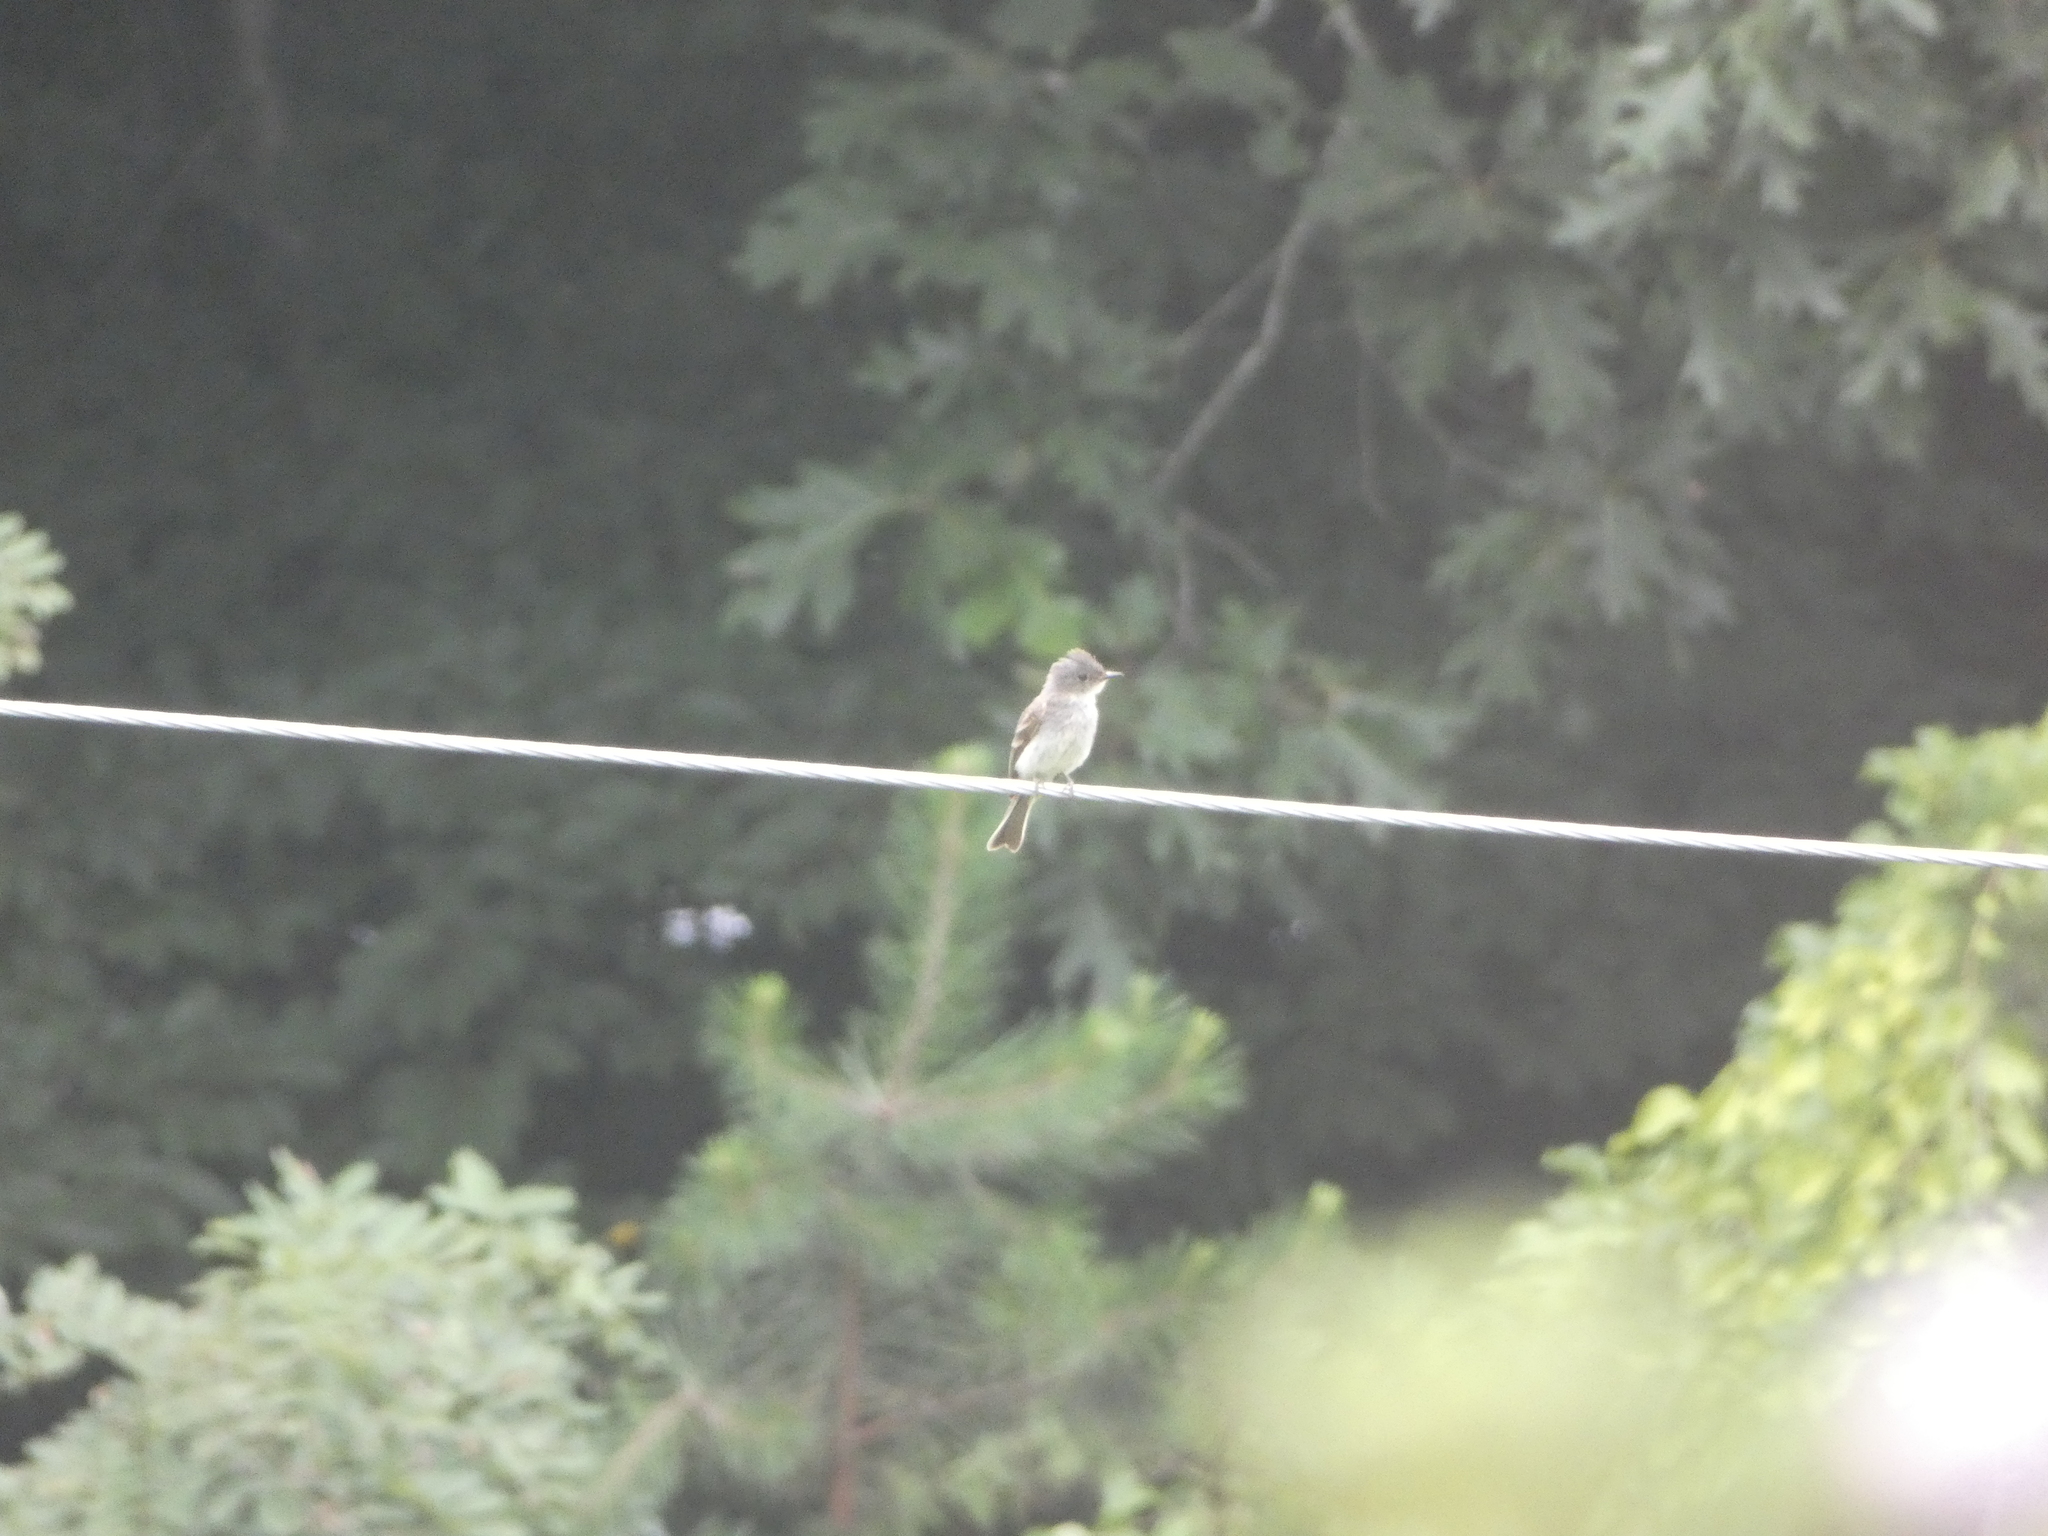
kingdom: Animalia
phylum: Chordata
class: Aves
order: Passeriformes
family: Tyrannidae
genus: Sayornis
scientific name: Sayornis phoebe
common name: Eastern phoebe
